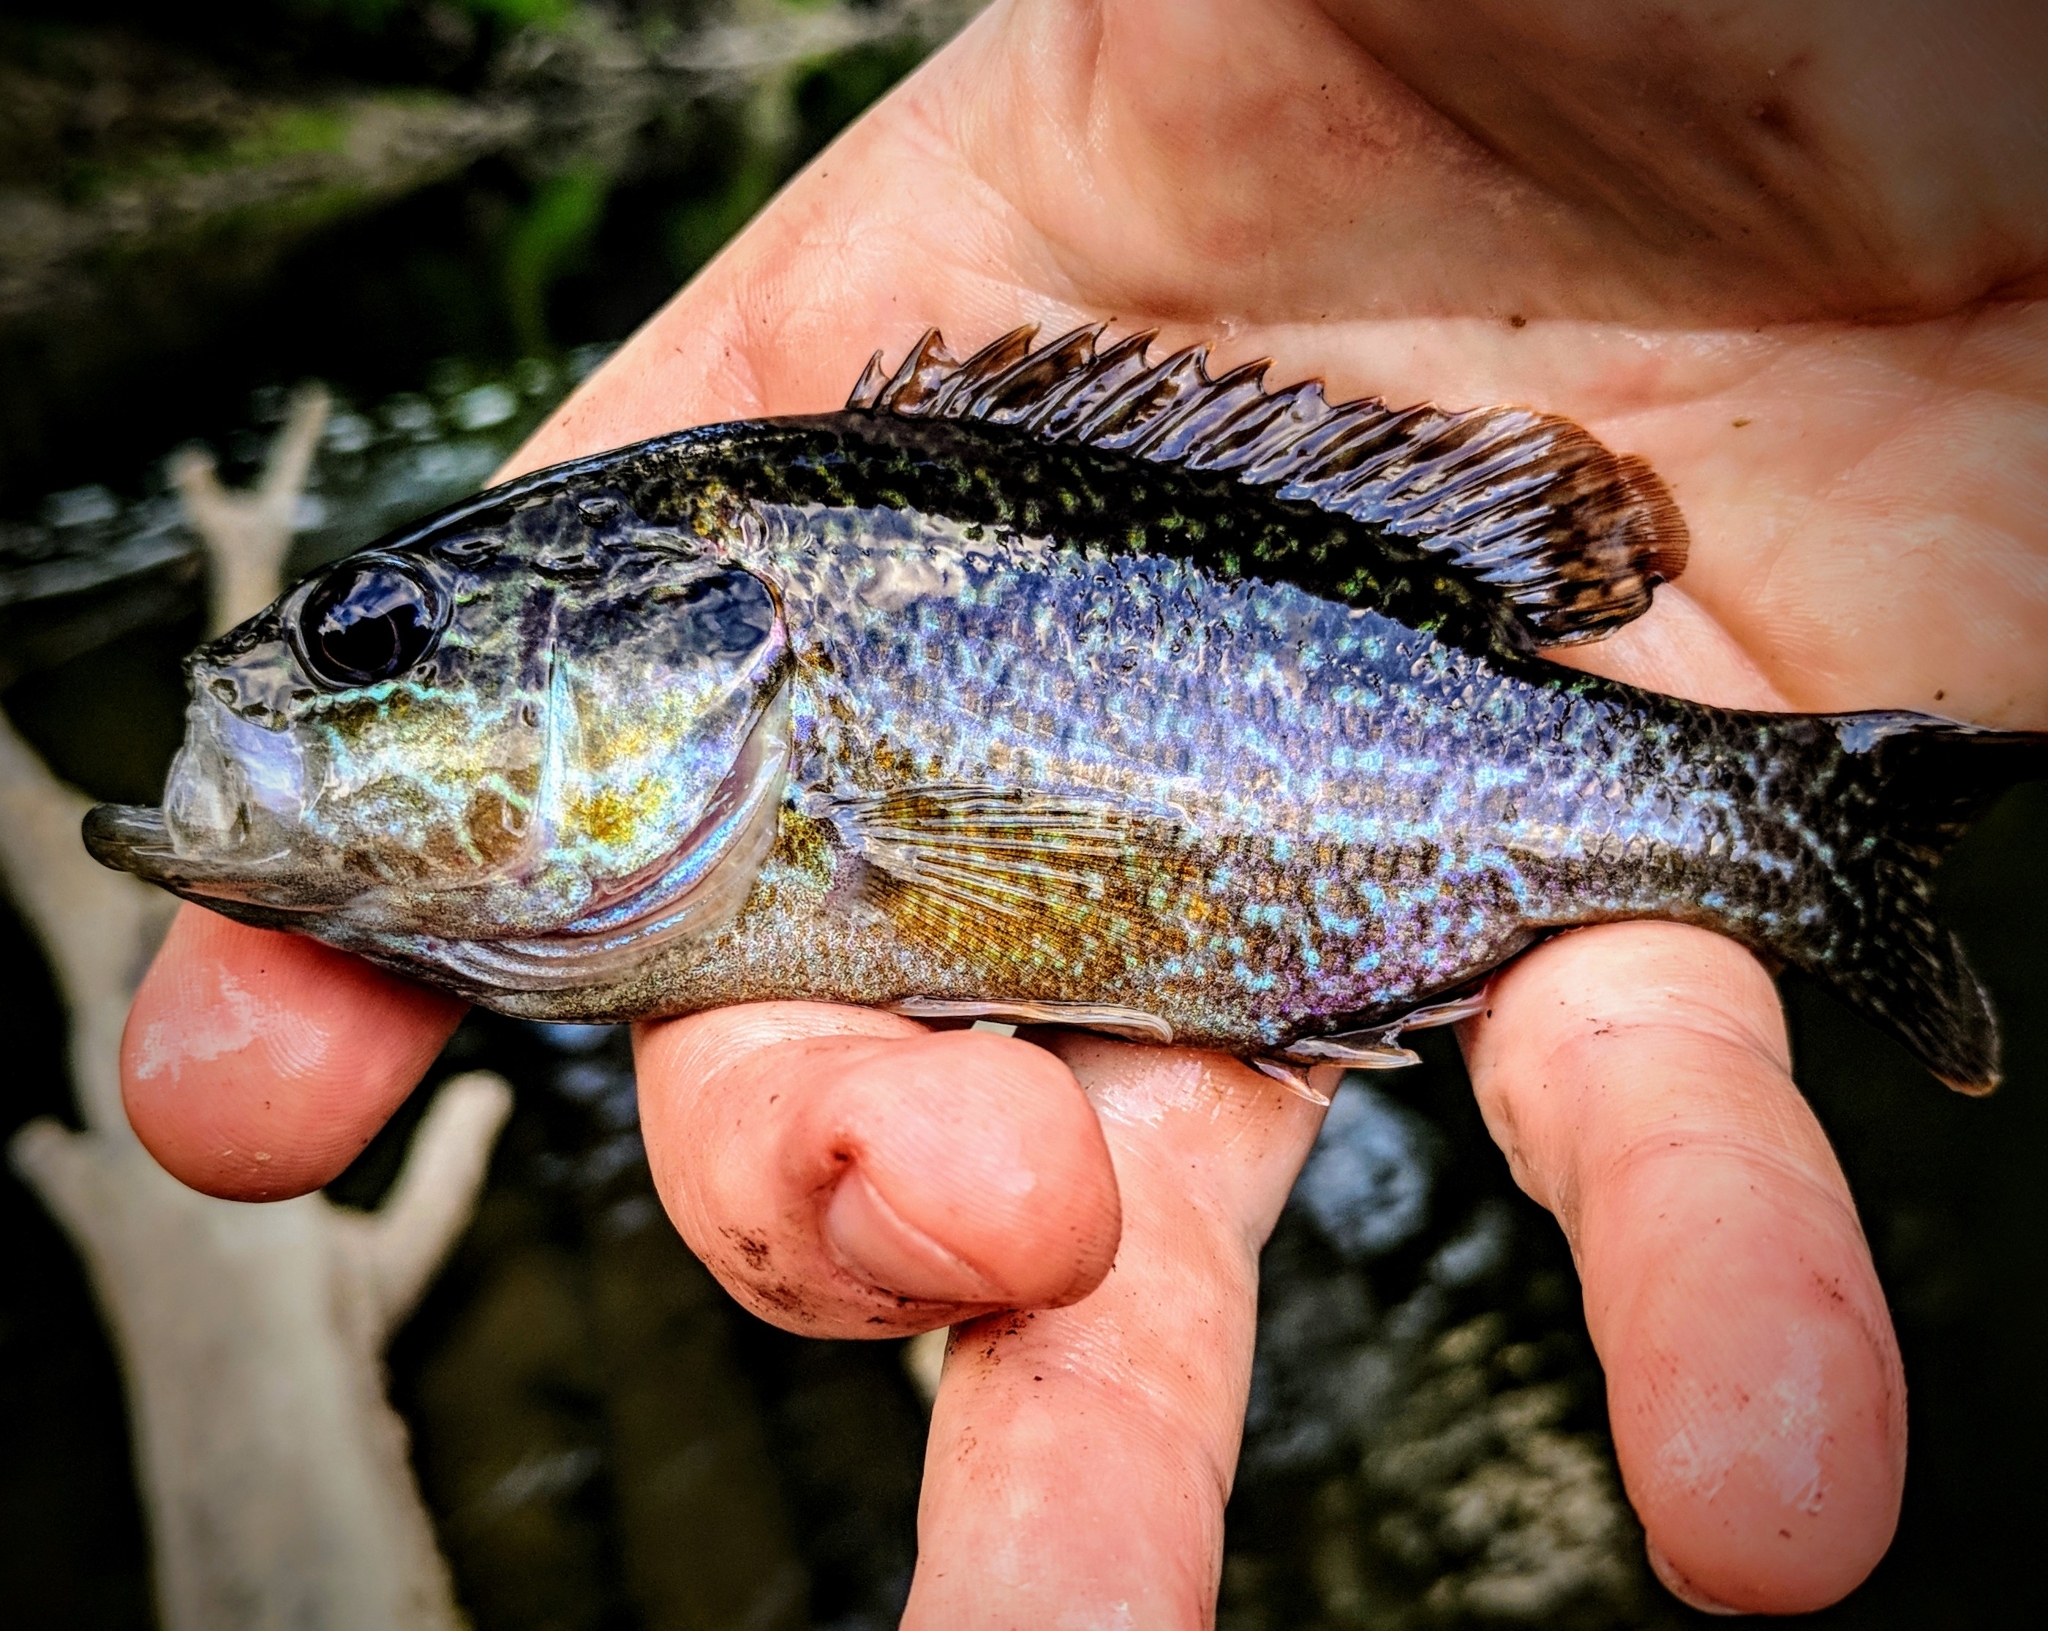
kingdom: Animalia
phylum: Chordata
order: Perciformes
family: Centrarchidae
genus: Lepomis
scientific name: Lepomis cyanellus
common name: Green sunfish
